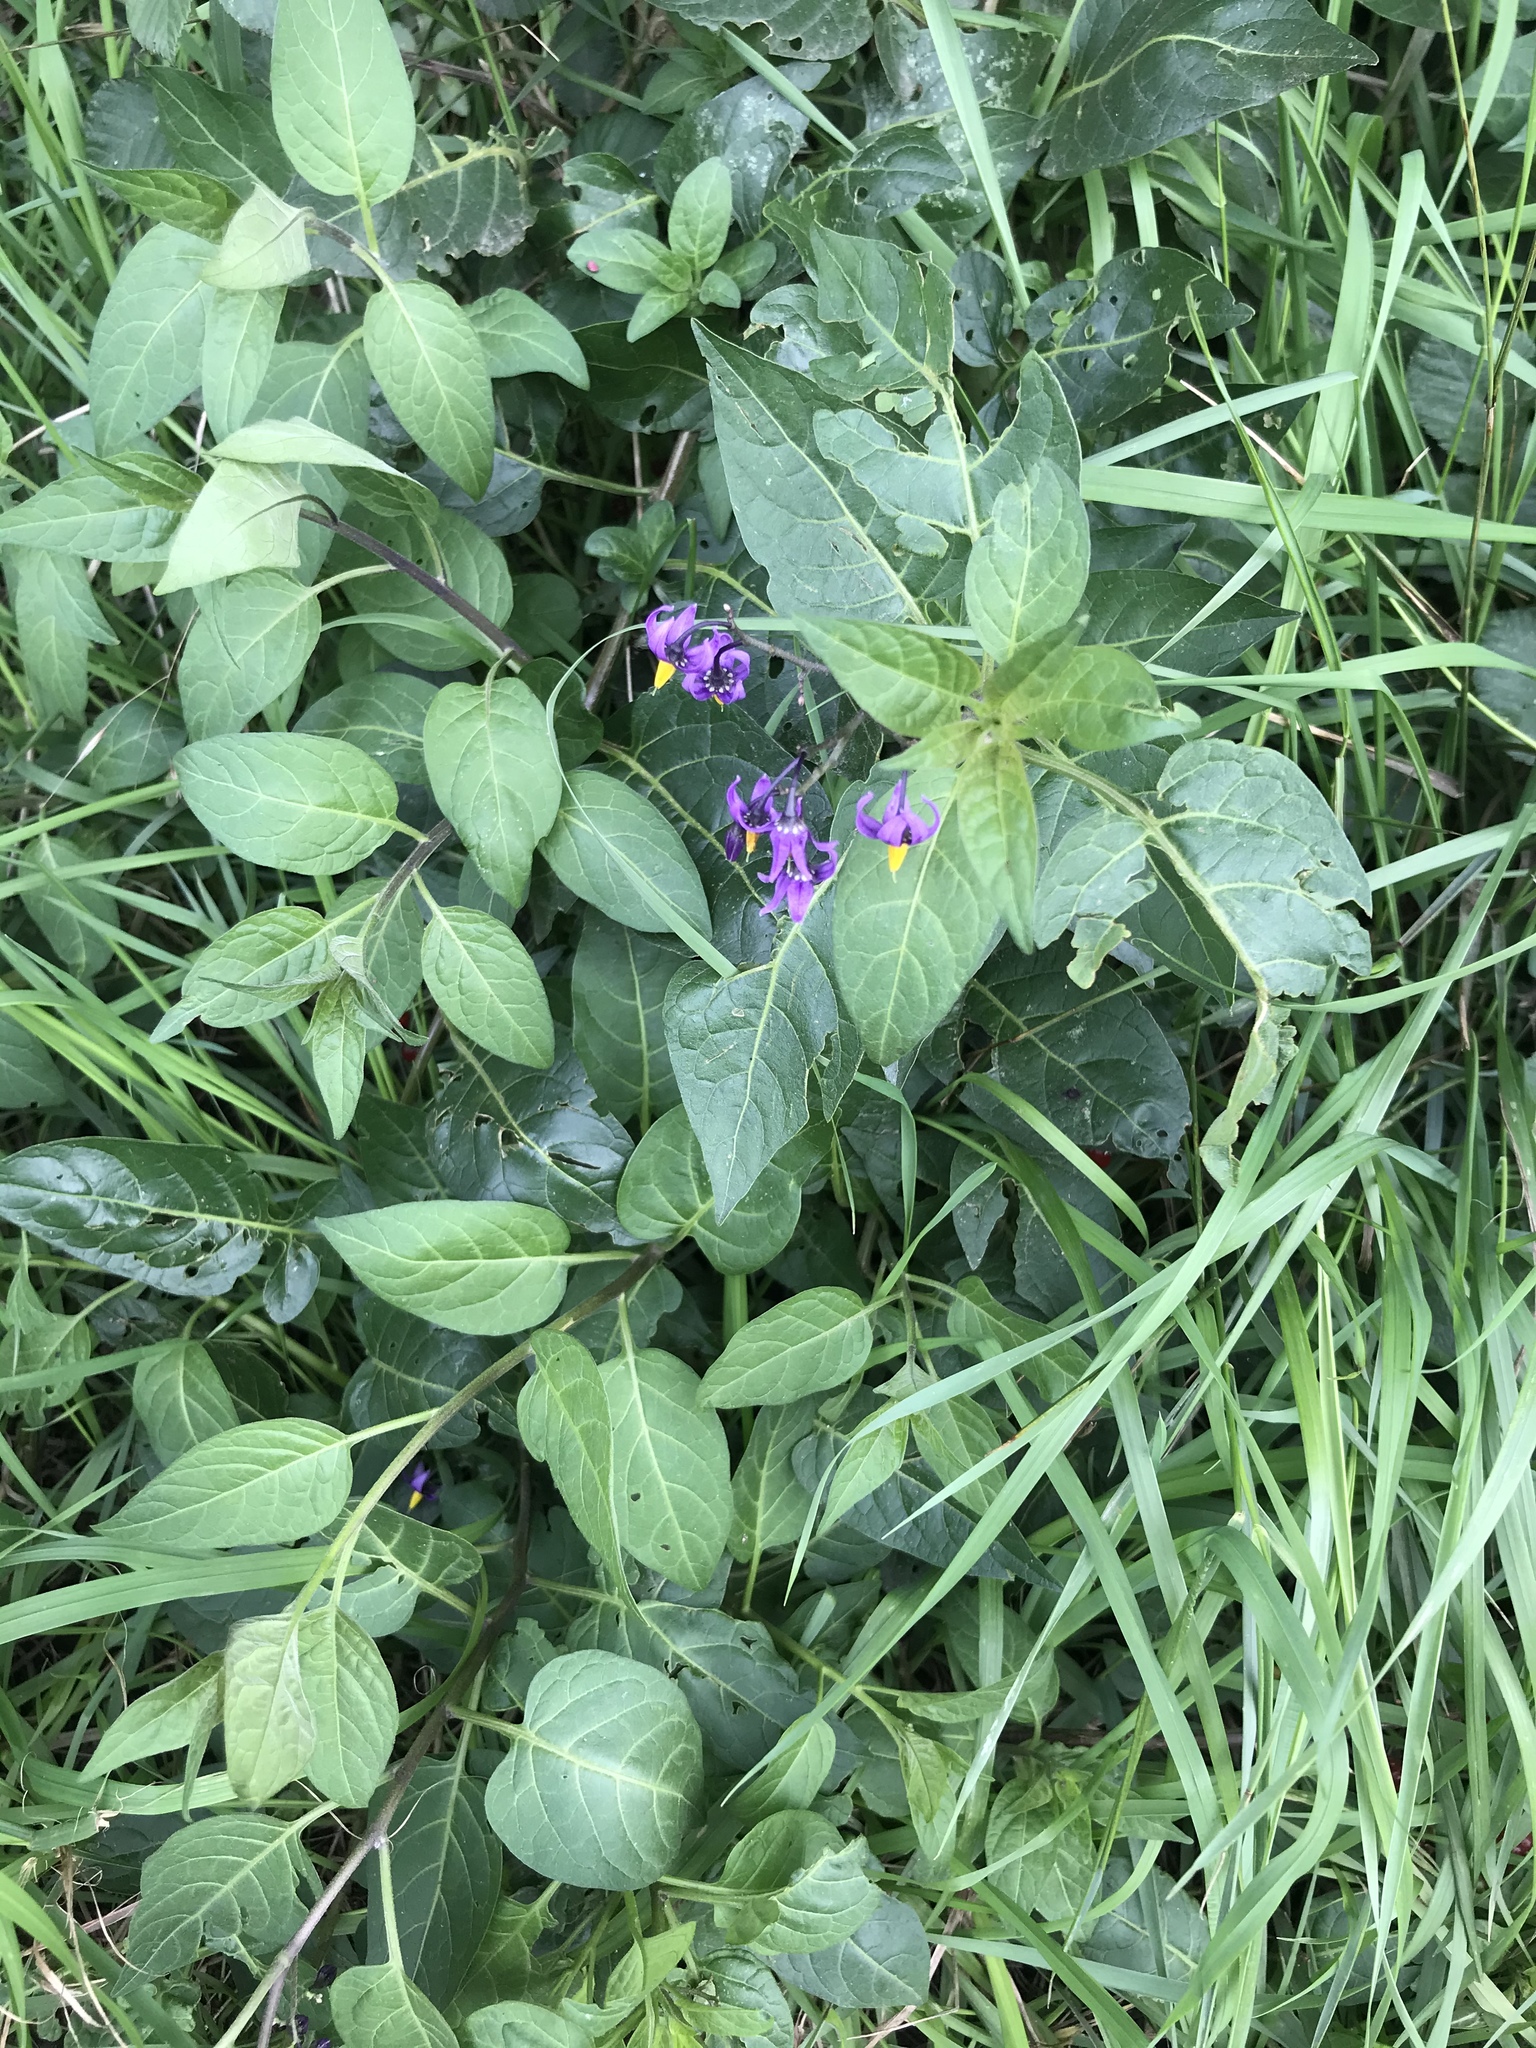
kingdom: Plantae
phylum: Tracheophyta
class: Magnoliopsida
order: Solanales
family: Solanaceae
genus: Solanum
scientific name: Solanum dulcamara
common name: Climbing nightshade
